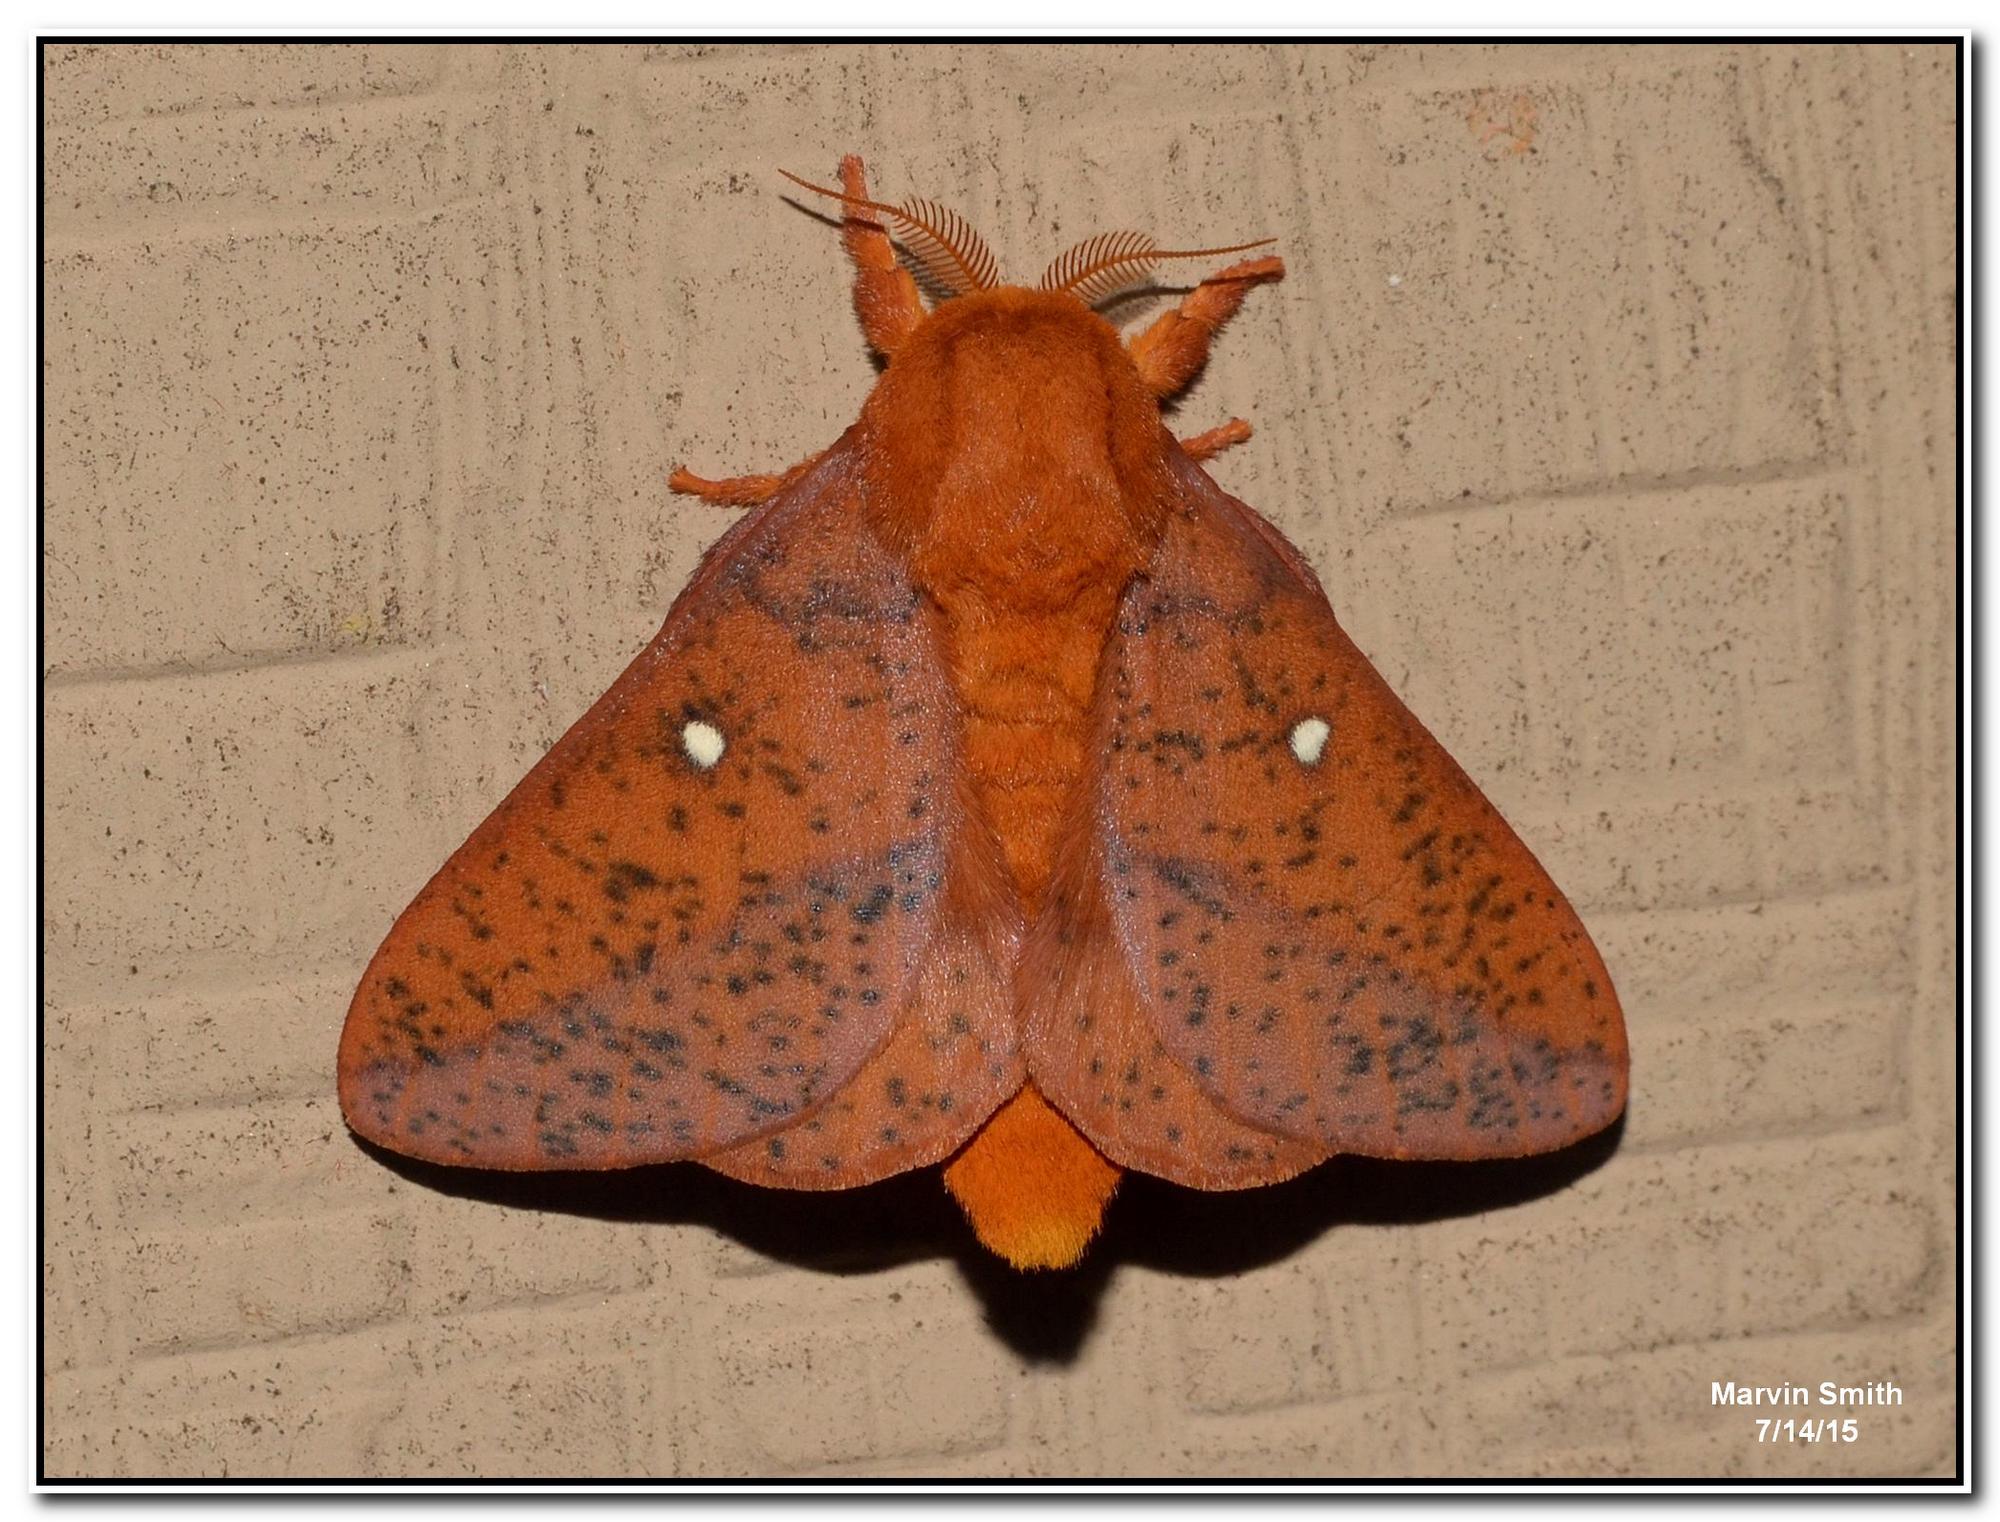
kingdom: Animalia
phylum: Arthropoda
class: Insecta
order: Lepidoptera
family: Saturniidae
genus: Anisota
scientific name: Anisota stigma
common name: Spiny oakworm moth
